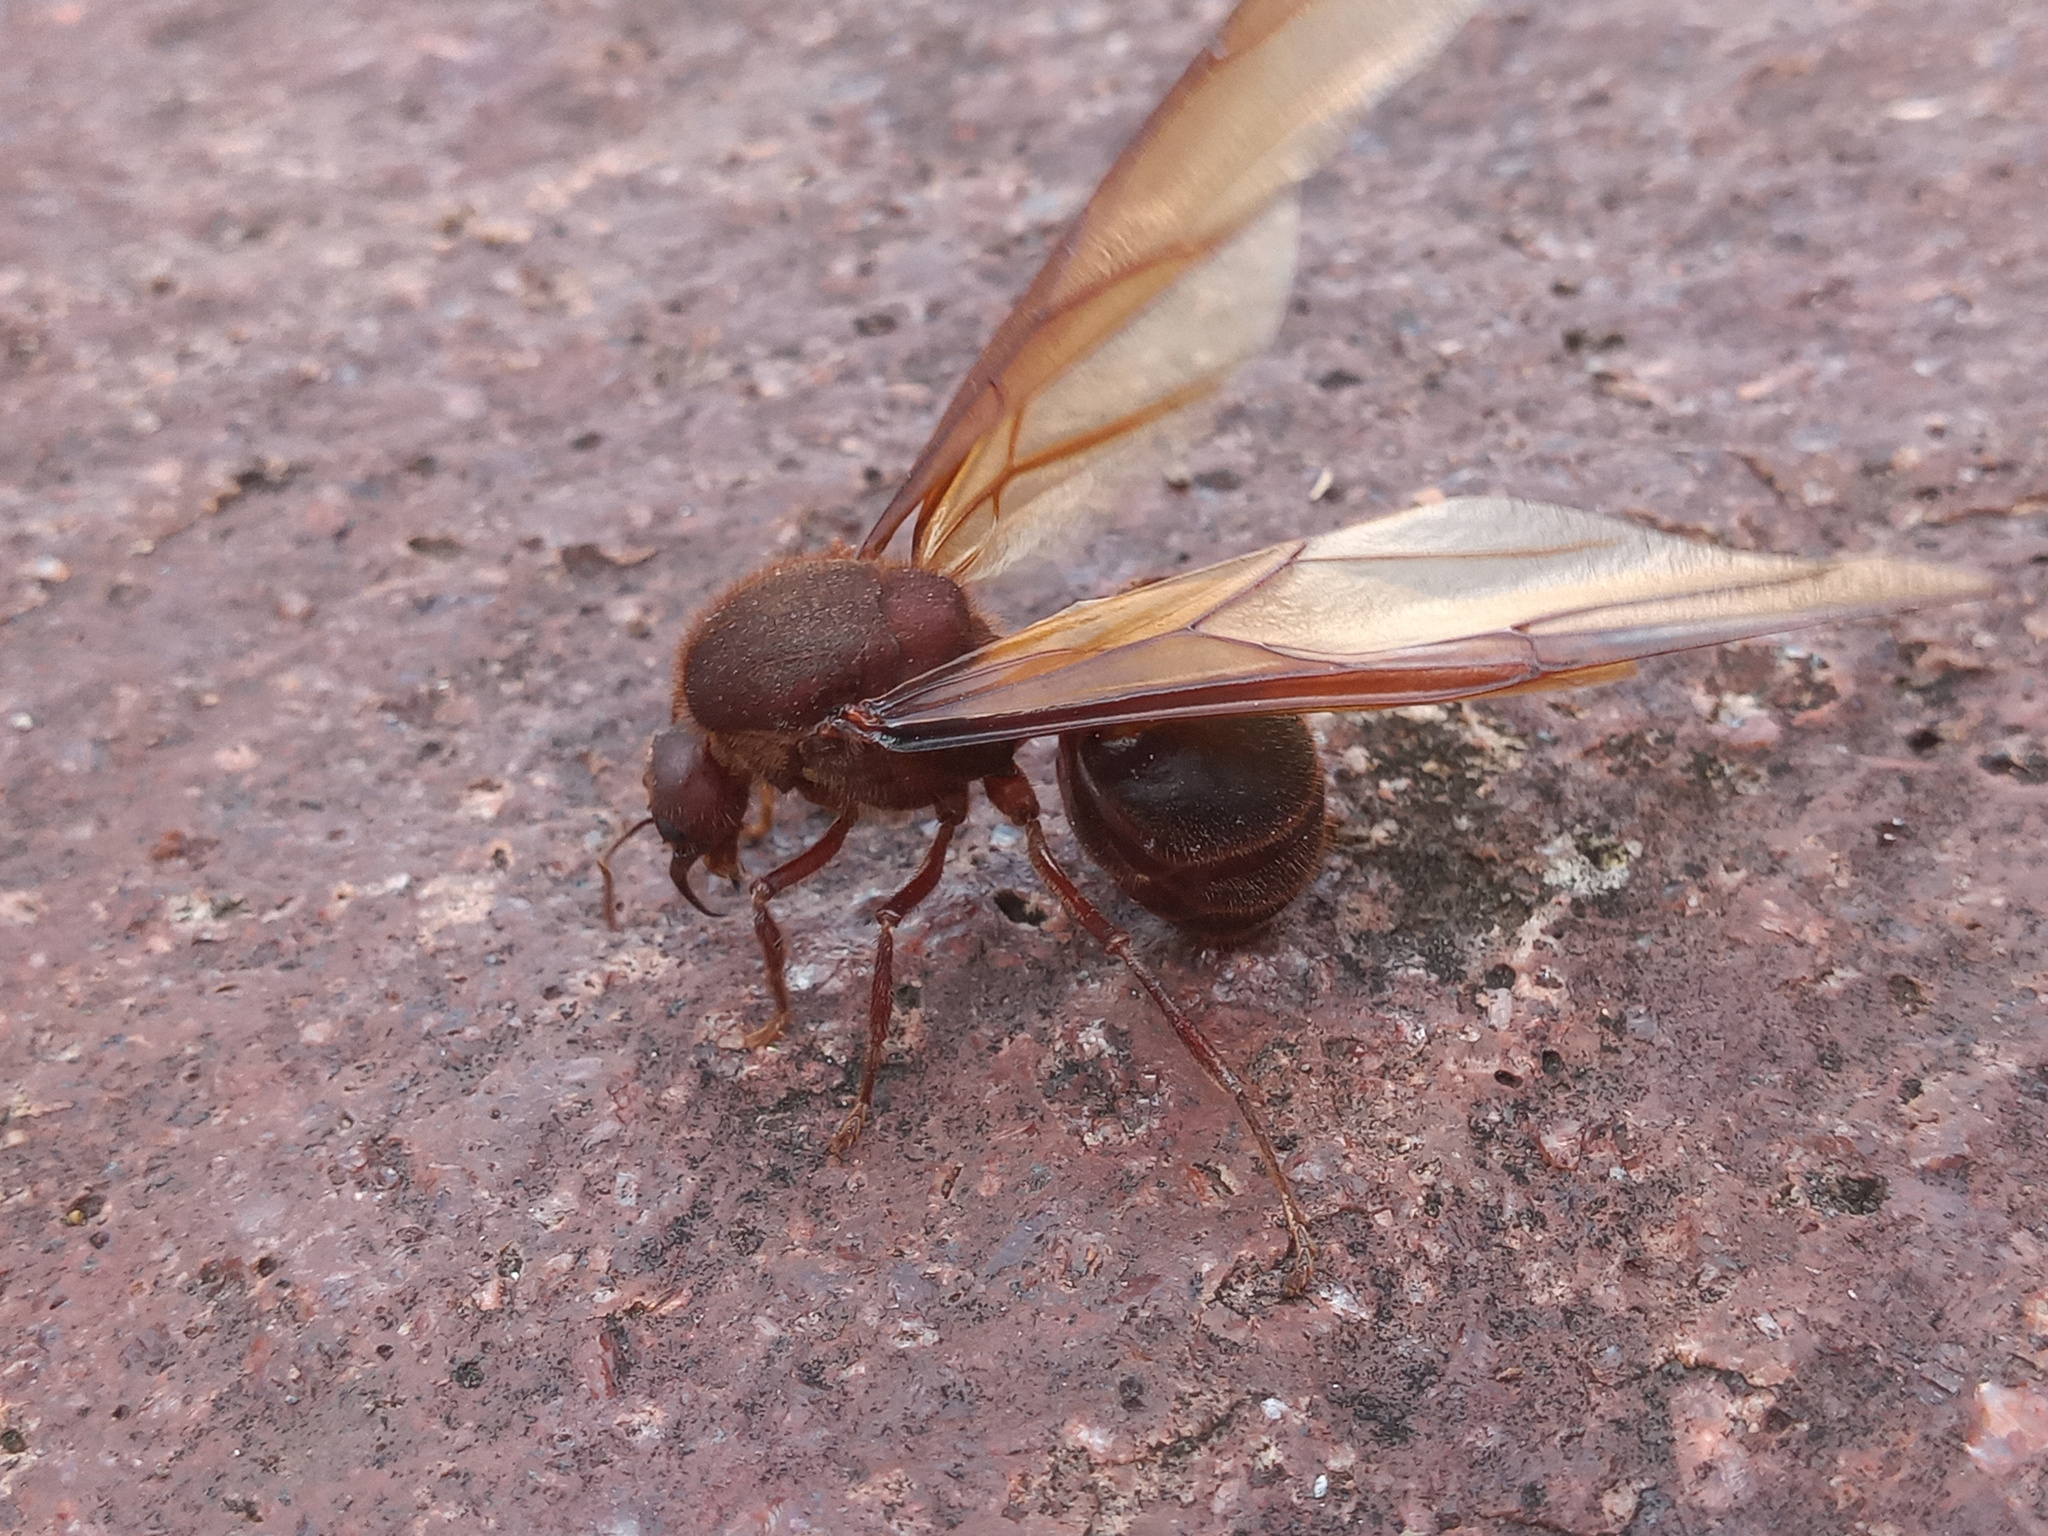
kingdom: Animalia
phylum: Arthropoda
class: Insecta
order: Hymenoptera
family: Formicidae
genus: Atta
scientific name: Atta mexicana
